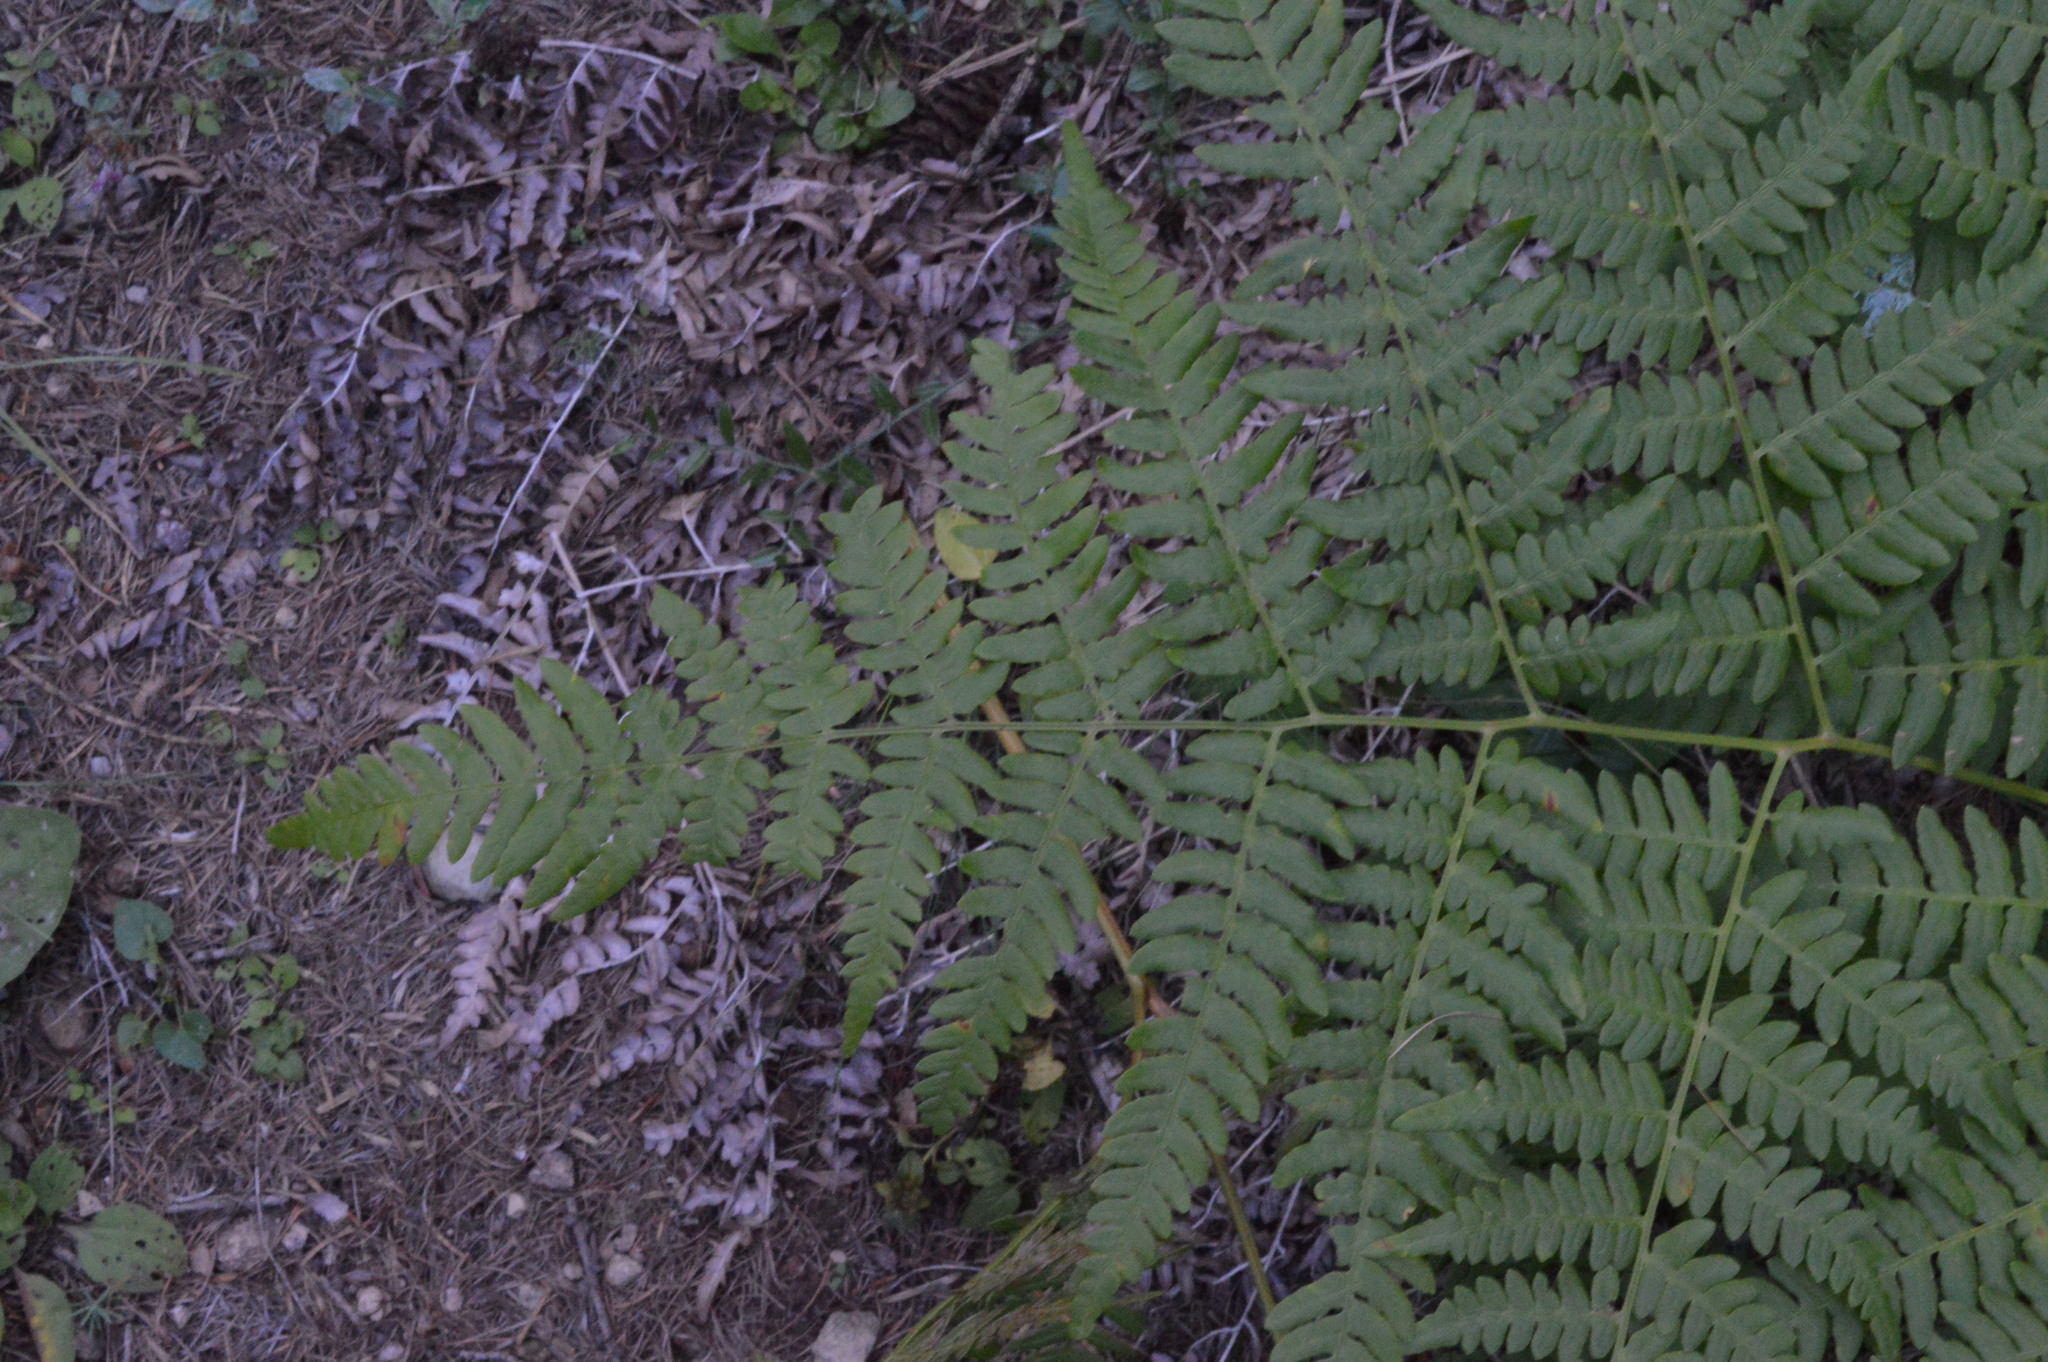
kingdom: Plantae
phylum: Tracheophyta
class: Polypodiopsida
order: Polypodiales
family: Dennstaedtiaceae
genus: Pteridium
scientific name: Pteridium aquilinum
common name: Bracken
